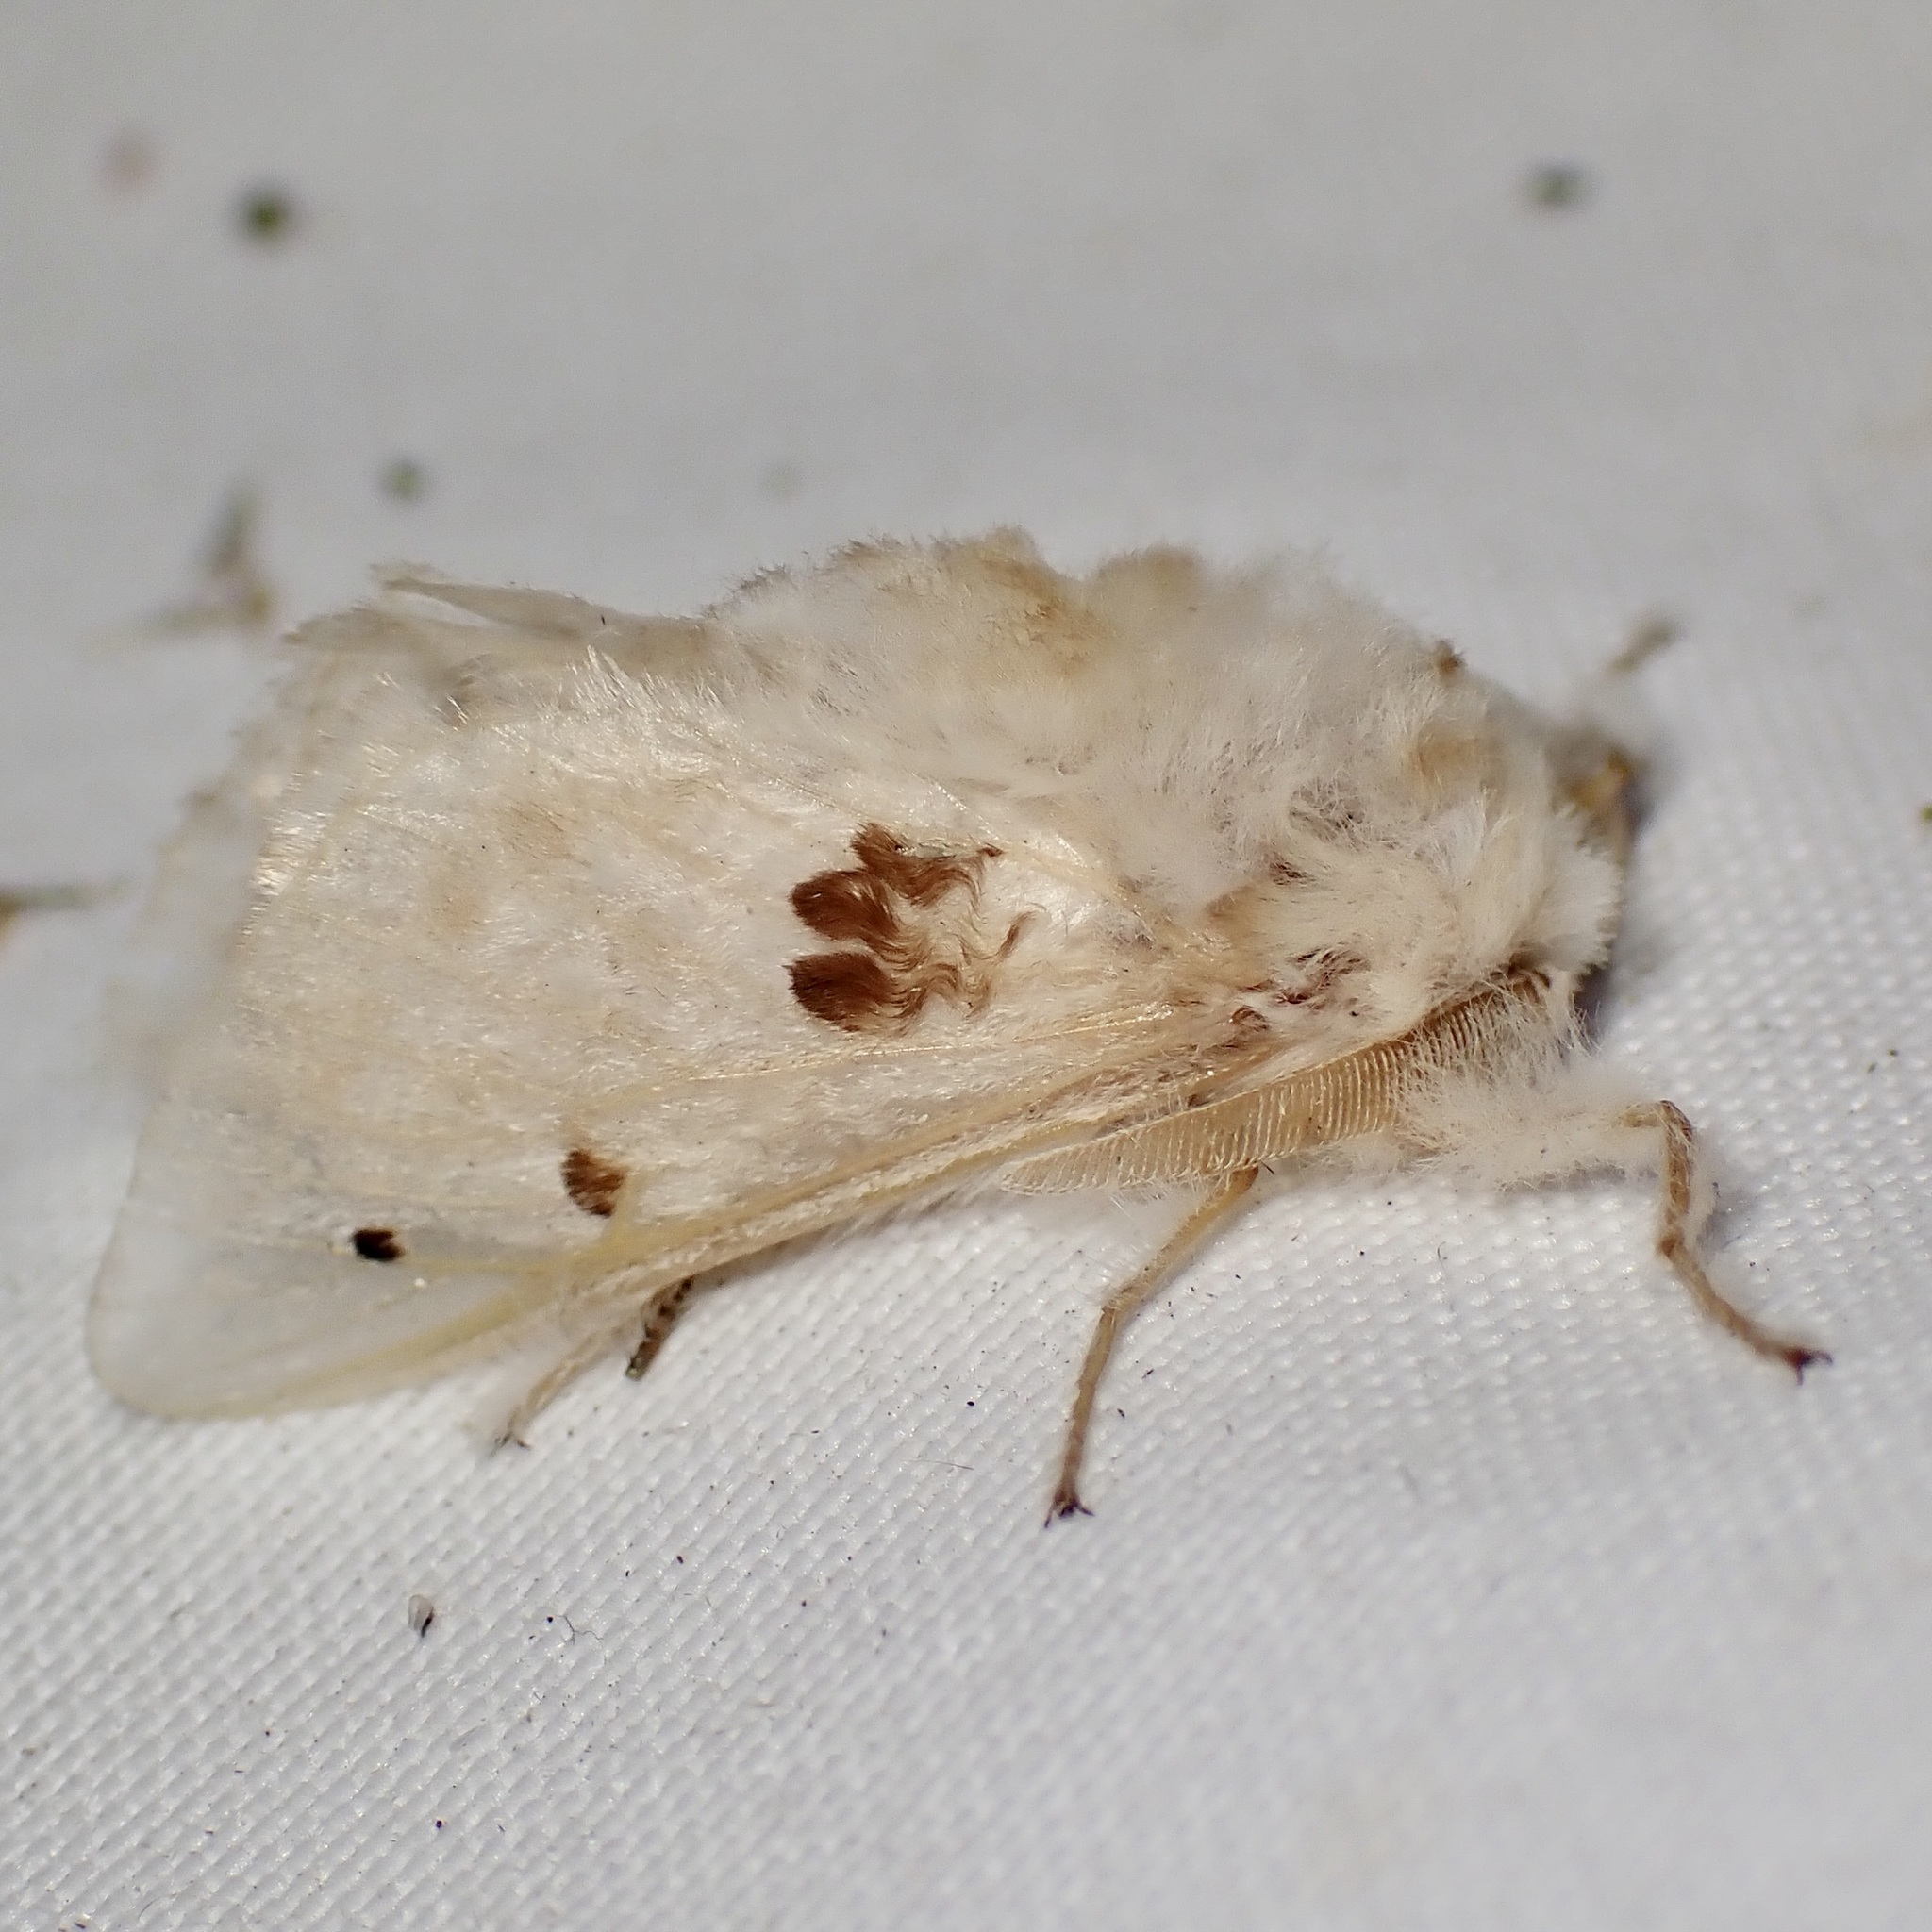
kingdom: Animalia
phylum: Arthropoda
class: Insecta
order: Lepidoptera
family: Megalopygidae
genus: Megalopyge
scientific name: Megalopyge lapena
